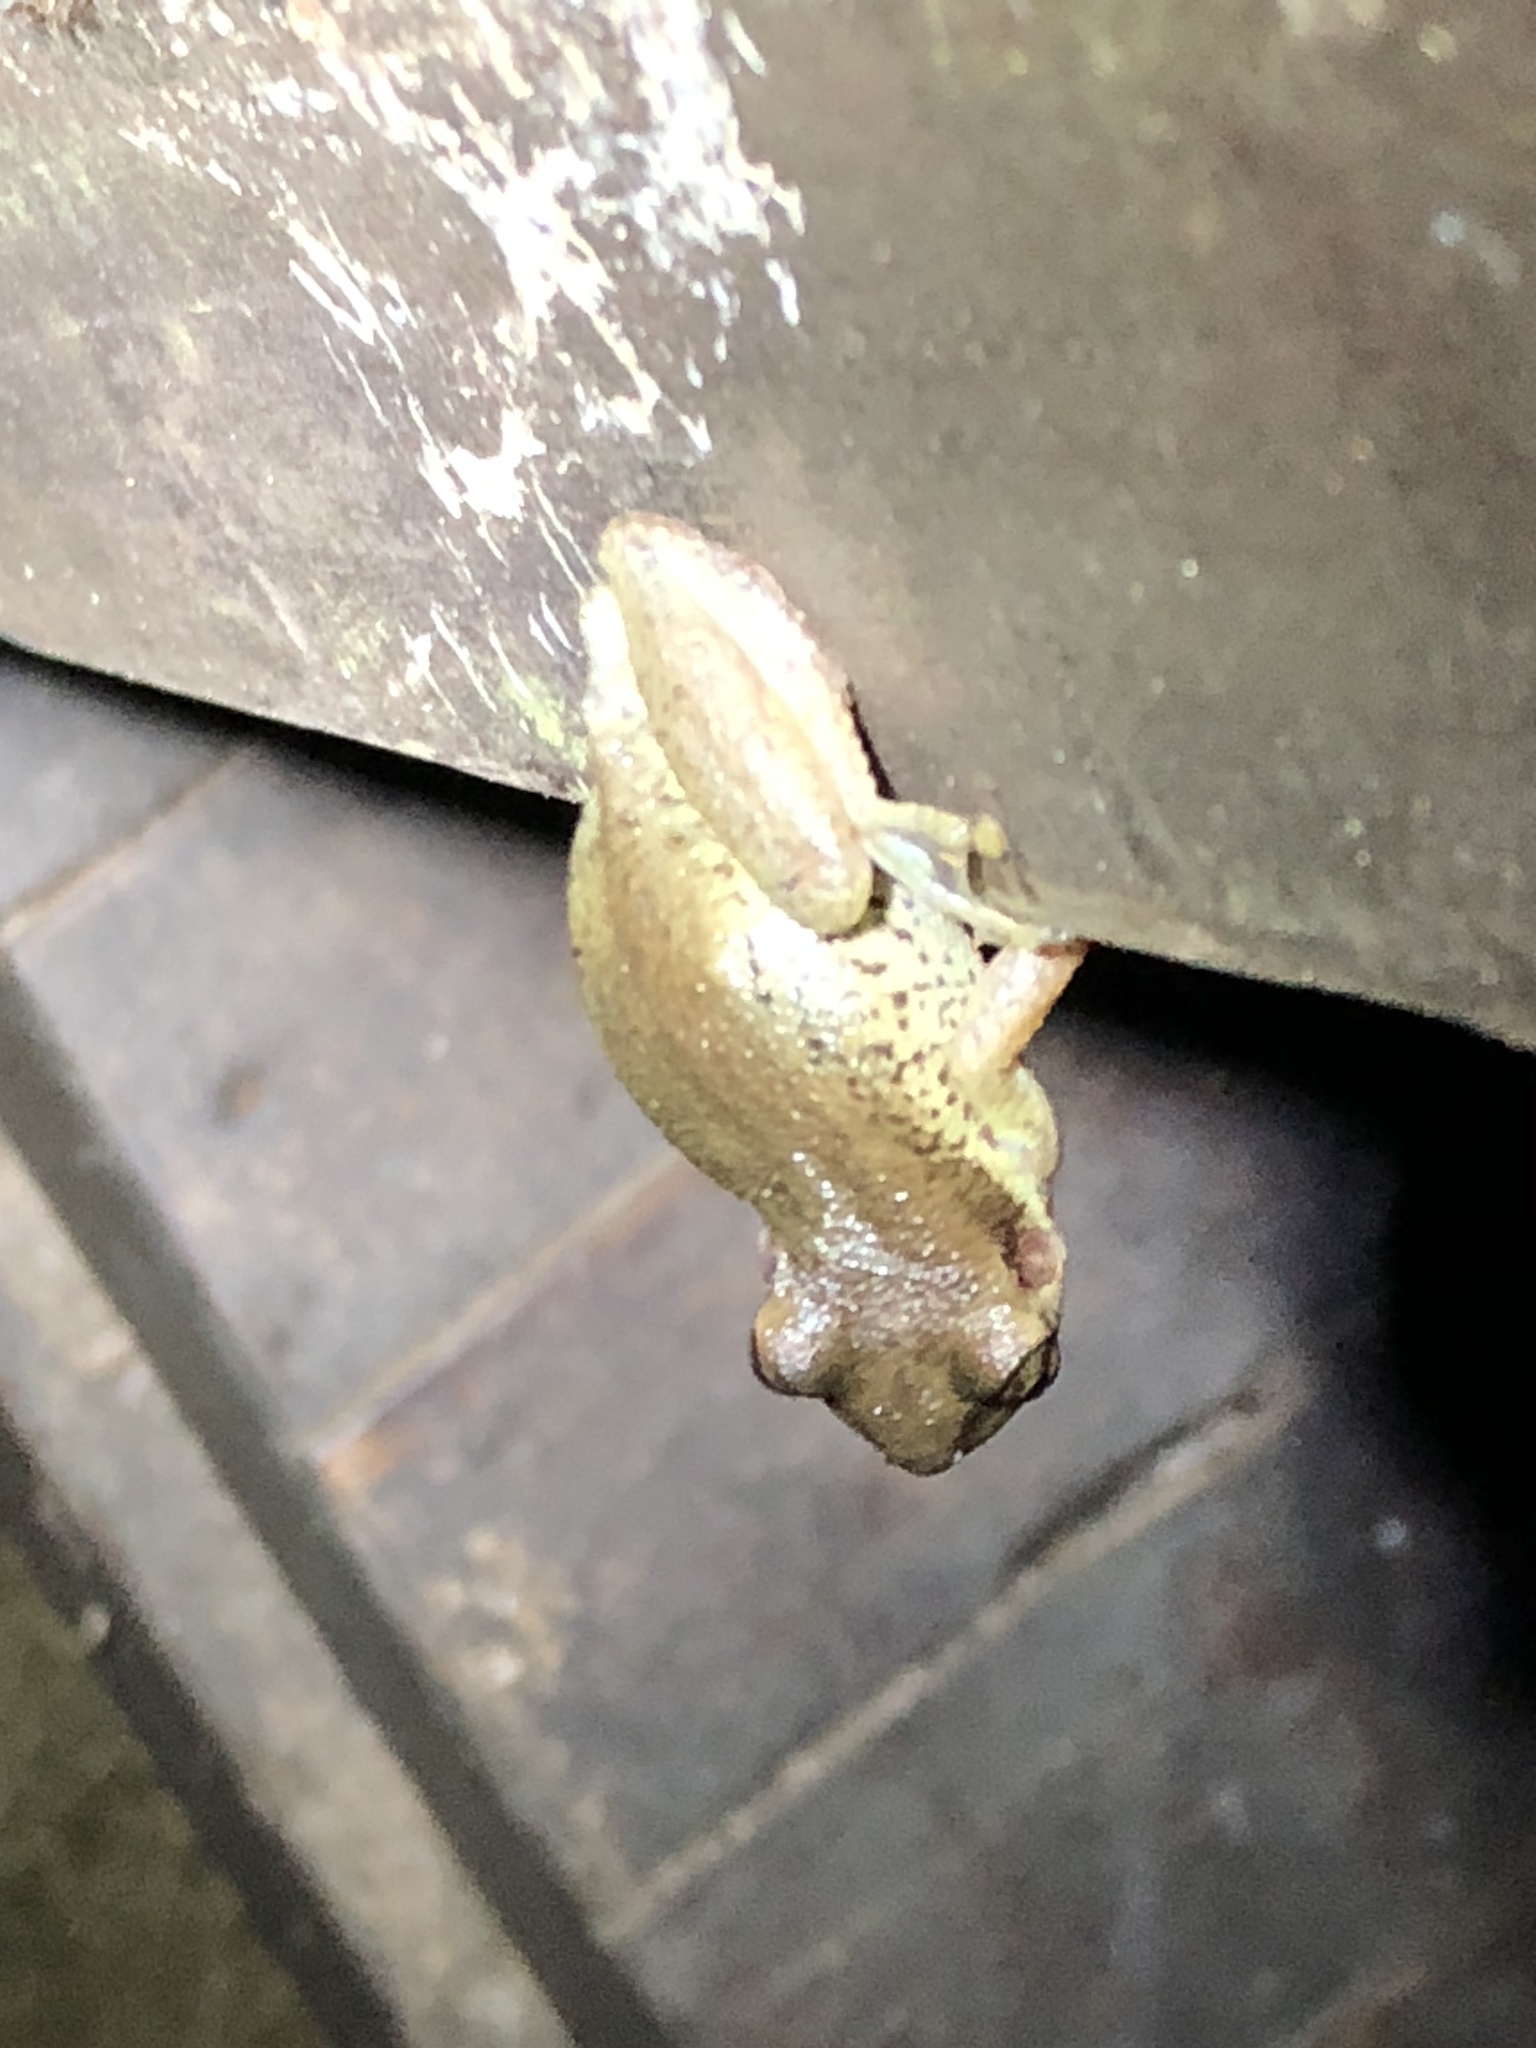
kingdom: Animalia
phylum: Chordata
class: Amphibia
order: Anura
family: Hylidae
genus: Scinax
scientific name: Scinax ruber
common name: Red snouted treefrog
